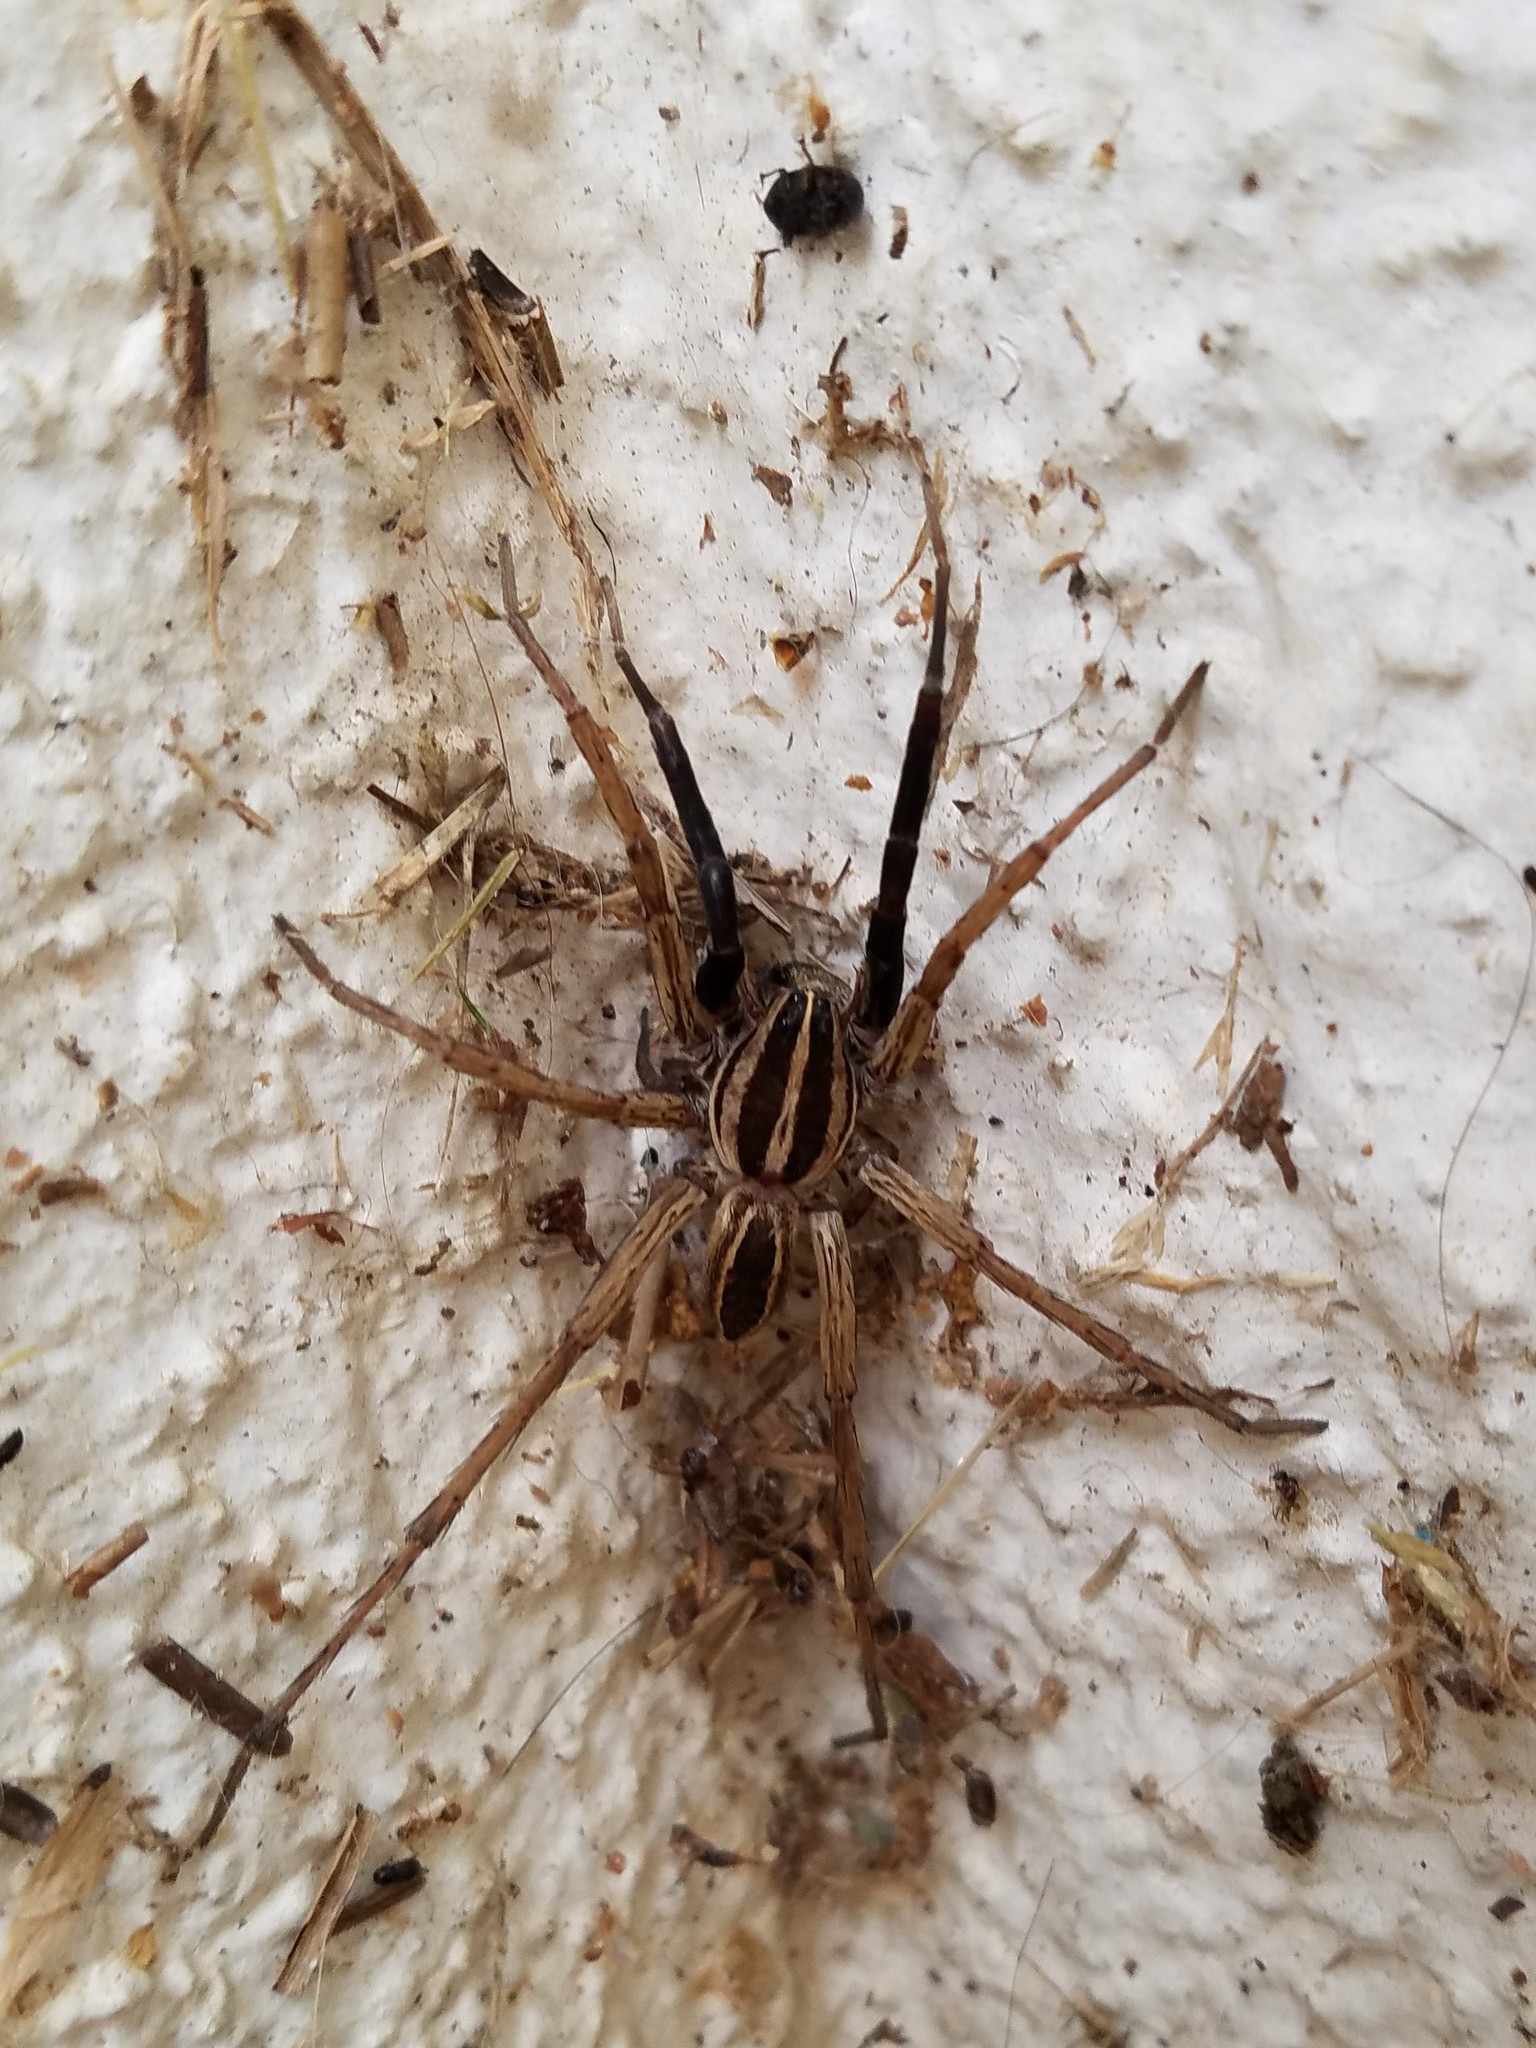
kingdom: Animalia
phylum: Arthropoda
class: Arachnida
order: Araneae
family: Lycosidae
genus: Rabidosa
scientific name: Rabidosa rabida
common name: Rabid wolf spider
